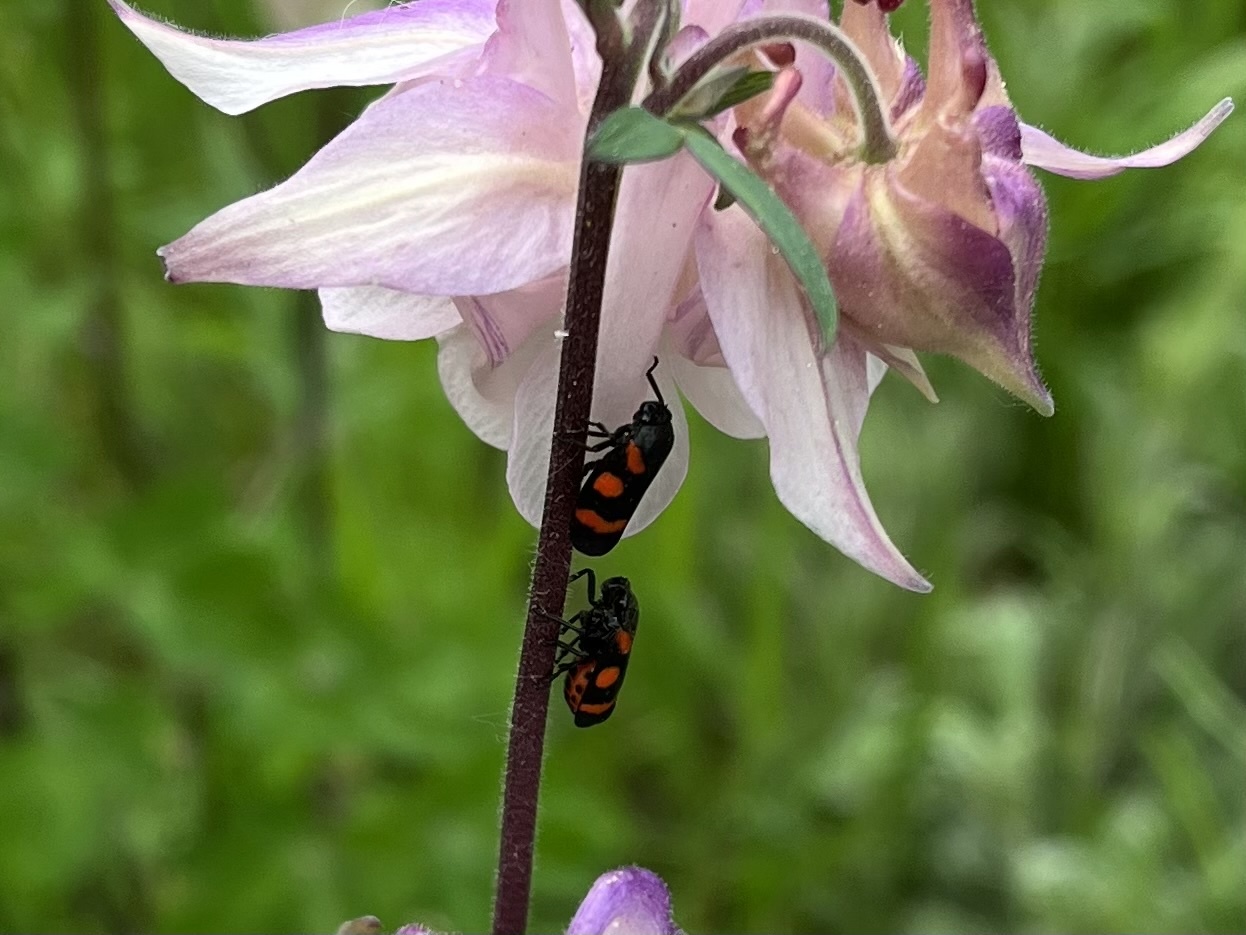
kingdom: Animalia
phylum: Arthropoda
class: Insecta
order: Hemiptera
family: Cercopidae
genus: Cercopis
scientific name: Cercopis sanguinolenta
